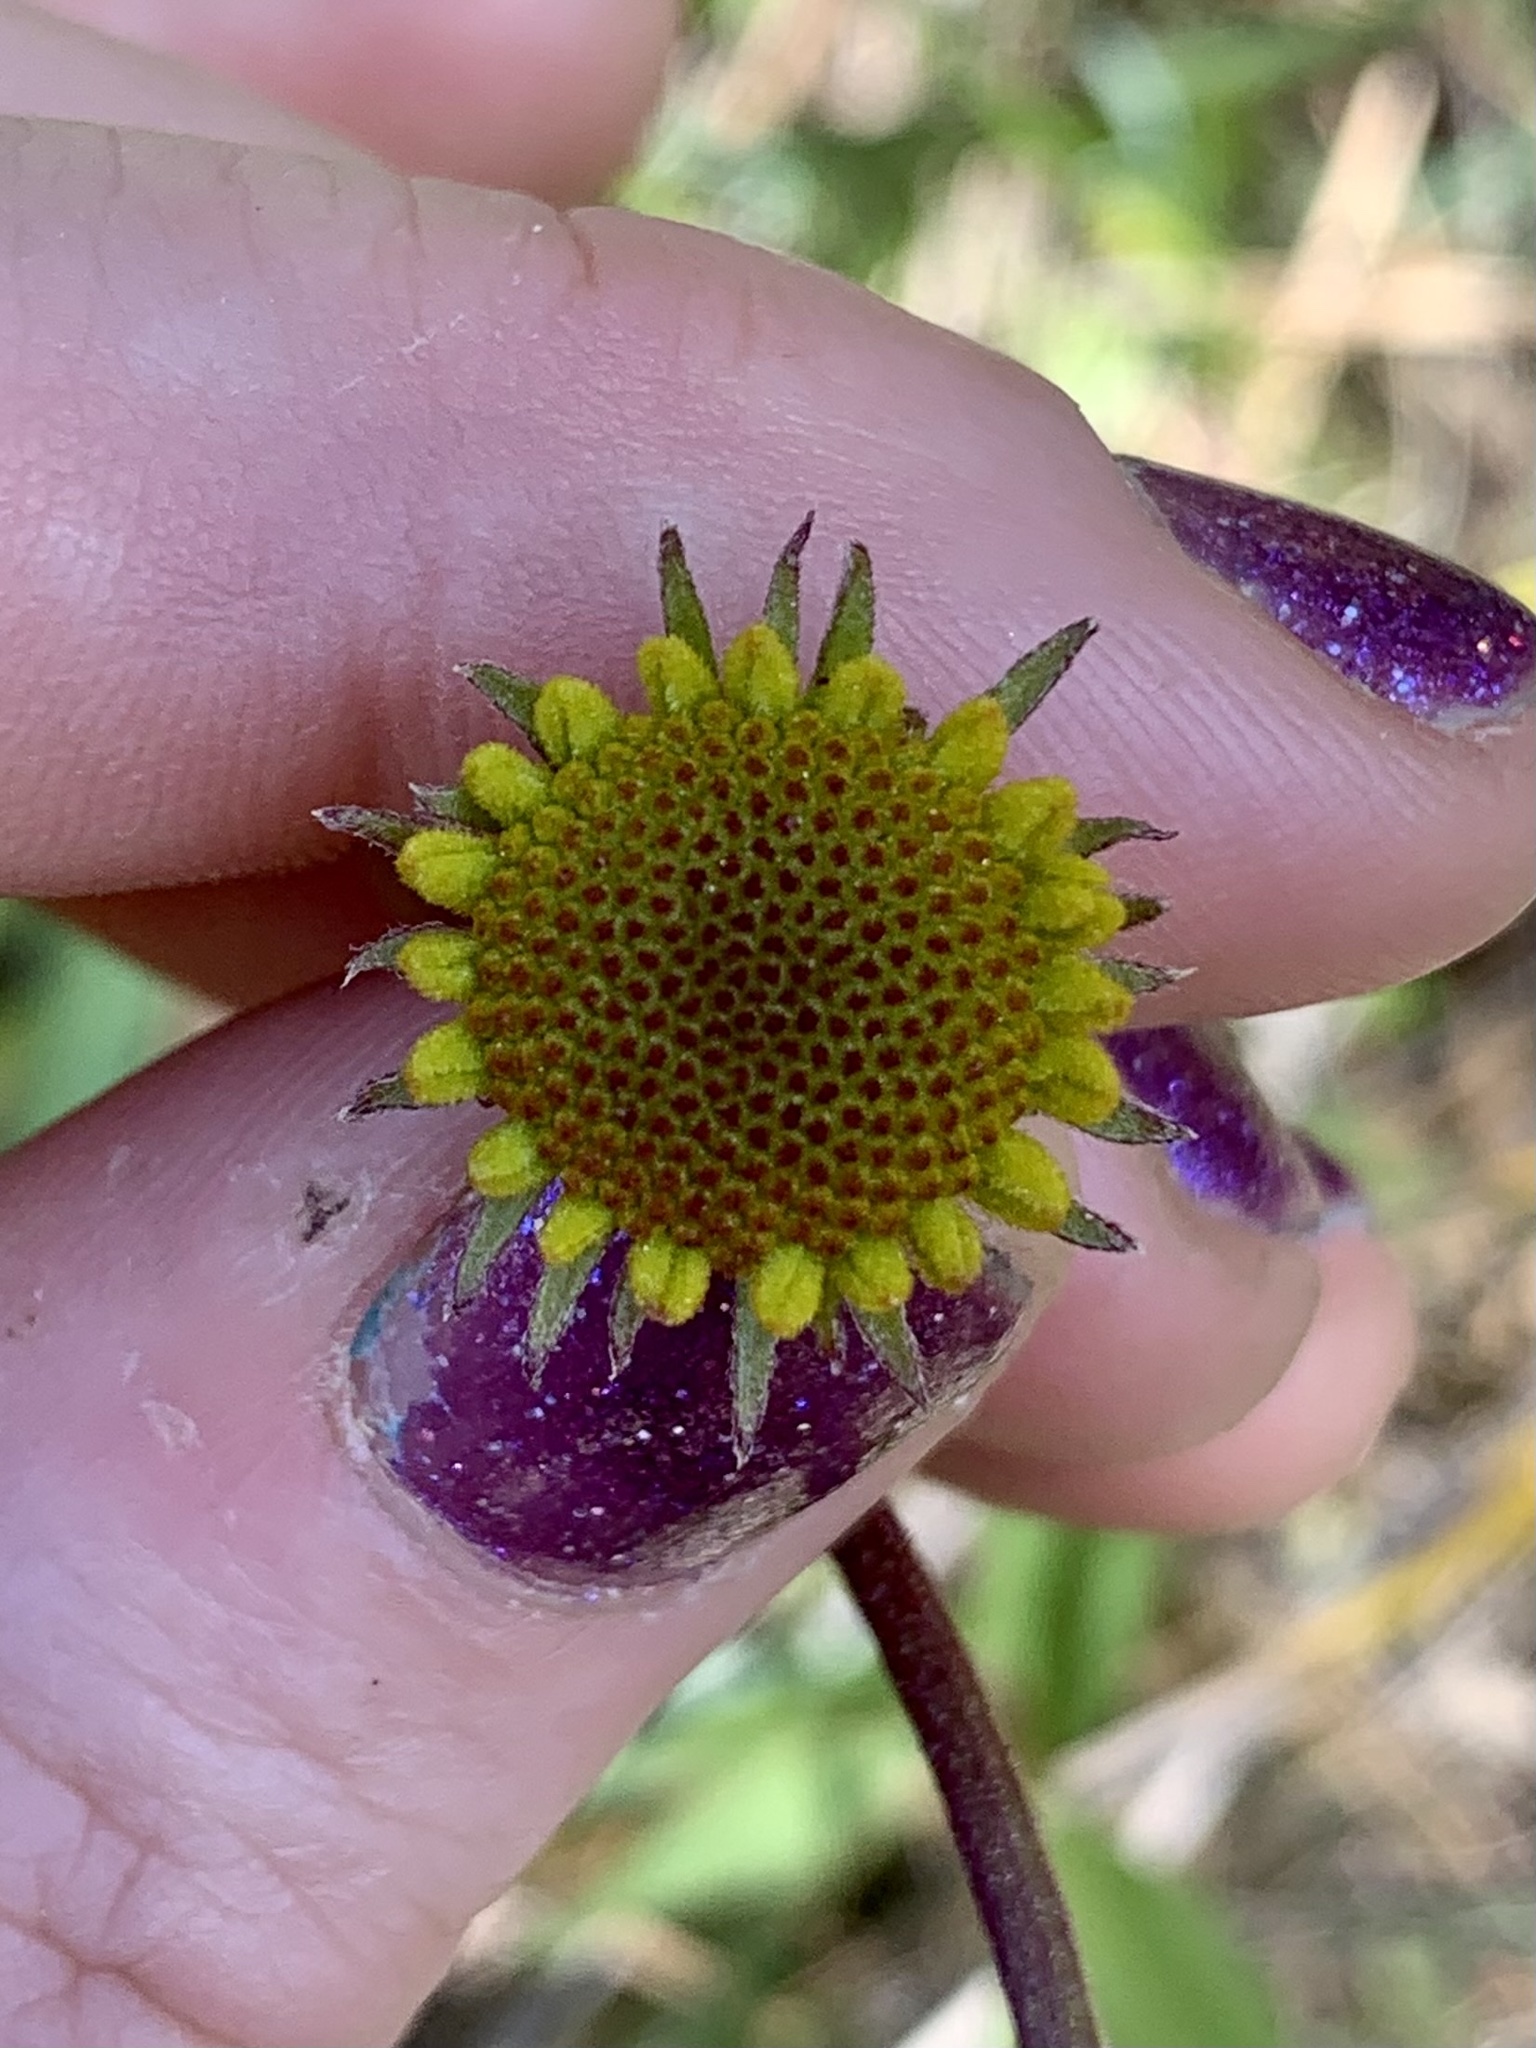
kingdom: Plantae
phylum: Tracheophyta
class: Magnoliopsida
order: Asterales
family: Asteraceae
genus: Helenium
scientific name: Helenium bigelovii
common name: Bigelow's sneezeweed
